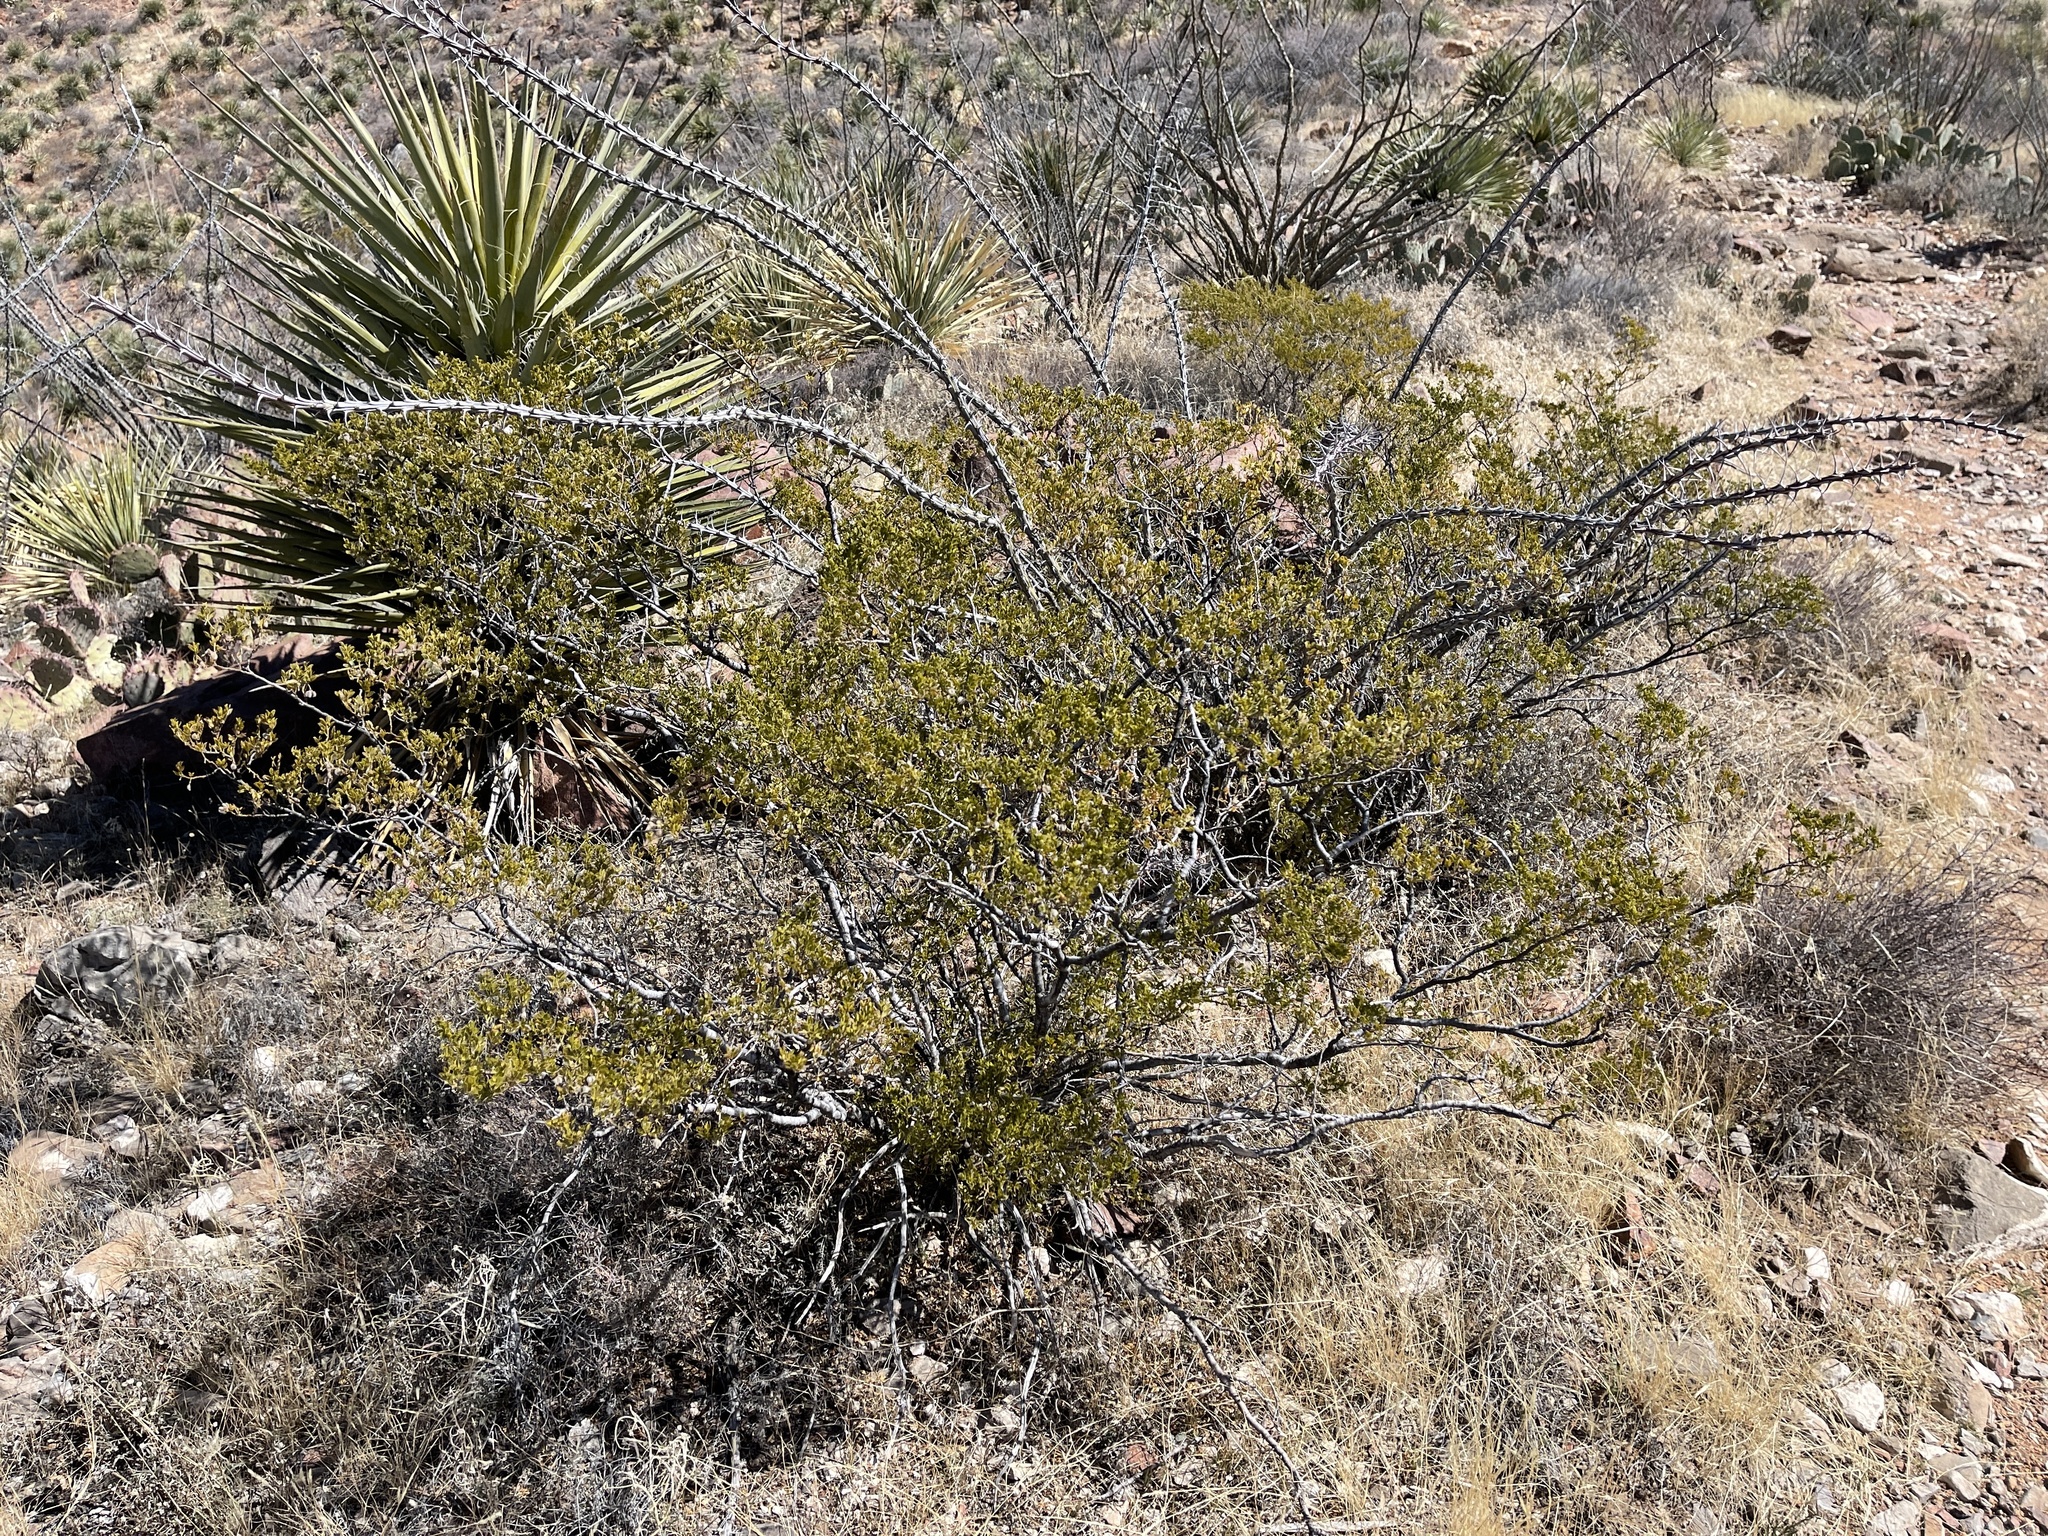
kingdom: Plantae
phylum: Tracheophyta
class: Magnoliopsida
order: Zygophyllales
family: Zygophyllaceae
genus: Larrea
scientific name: Larrea tridentata
